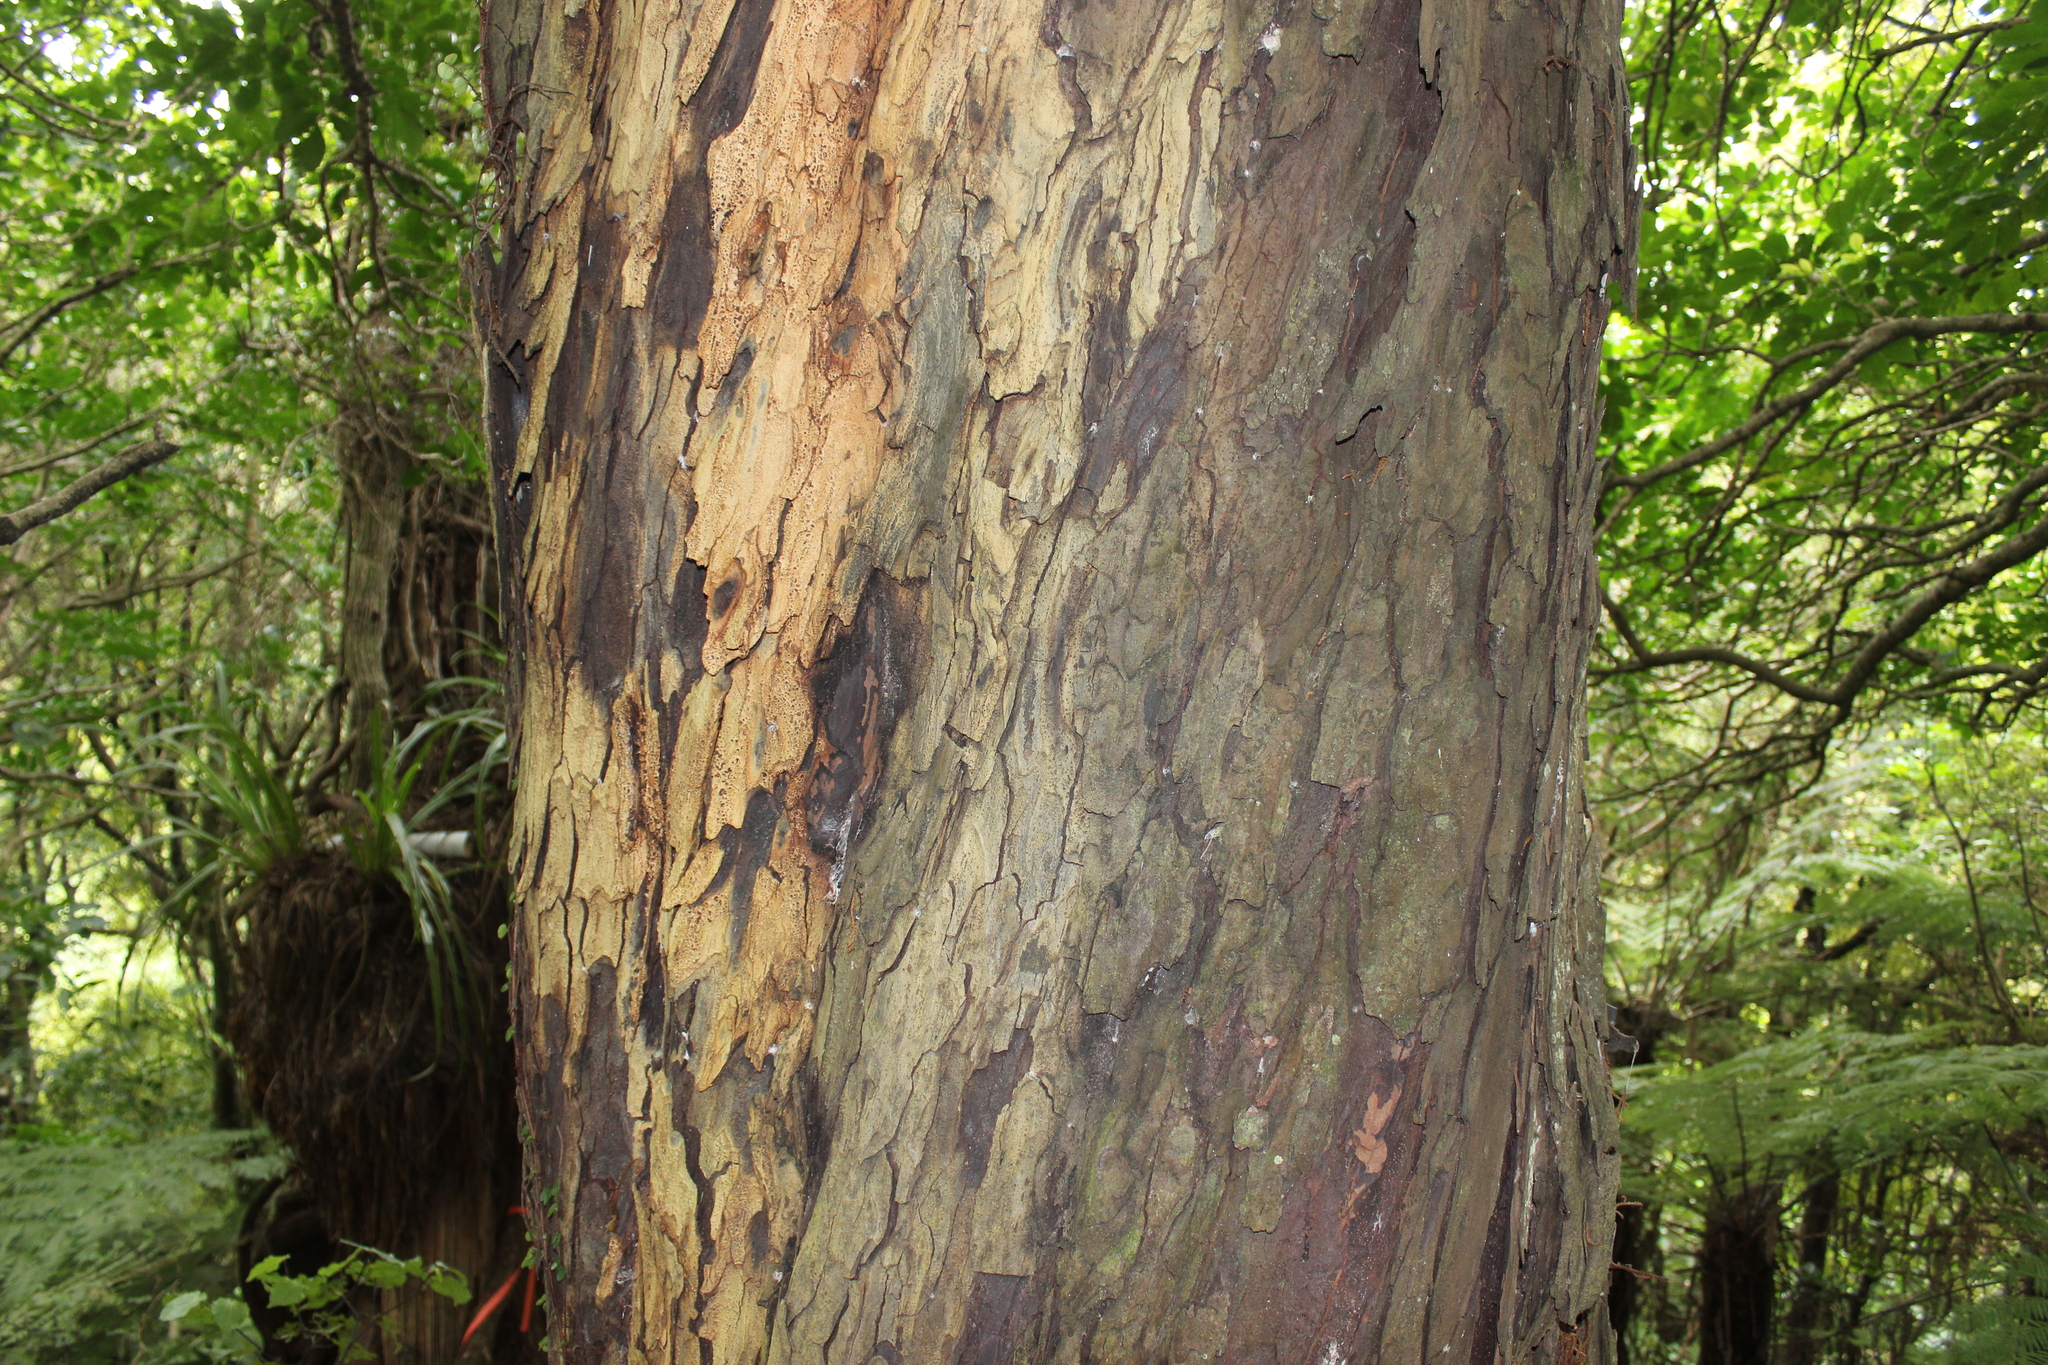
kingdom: Plantae
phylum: Tracheophyta
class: Pinopsida
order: Pinales
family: Podocarpaceae
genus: Dacrydium
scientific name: Dacrydium cupressinum
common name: Red pine
